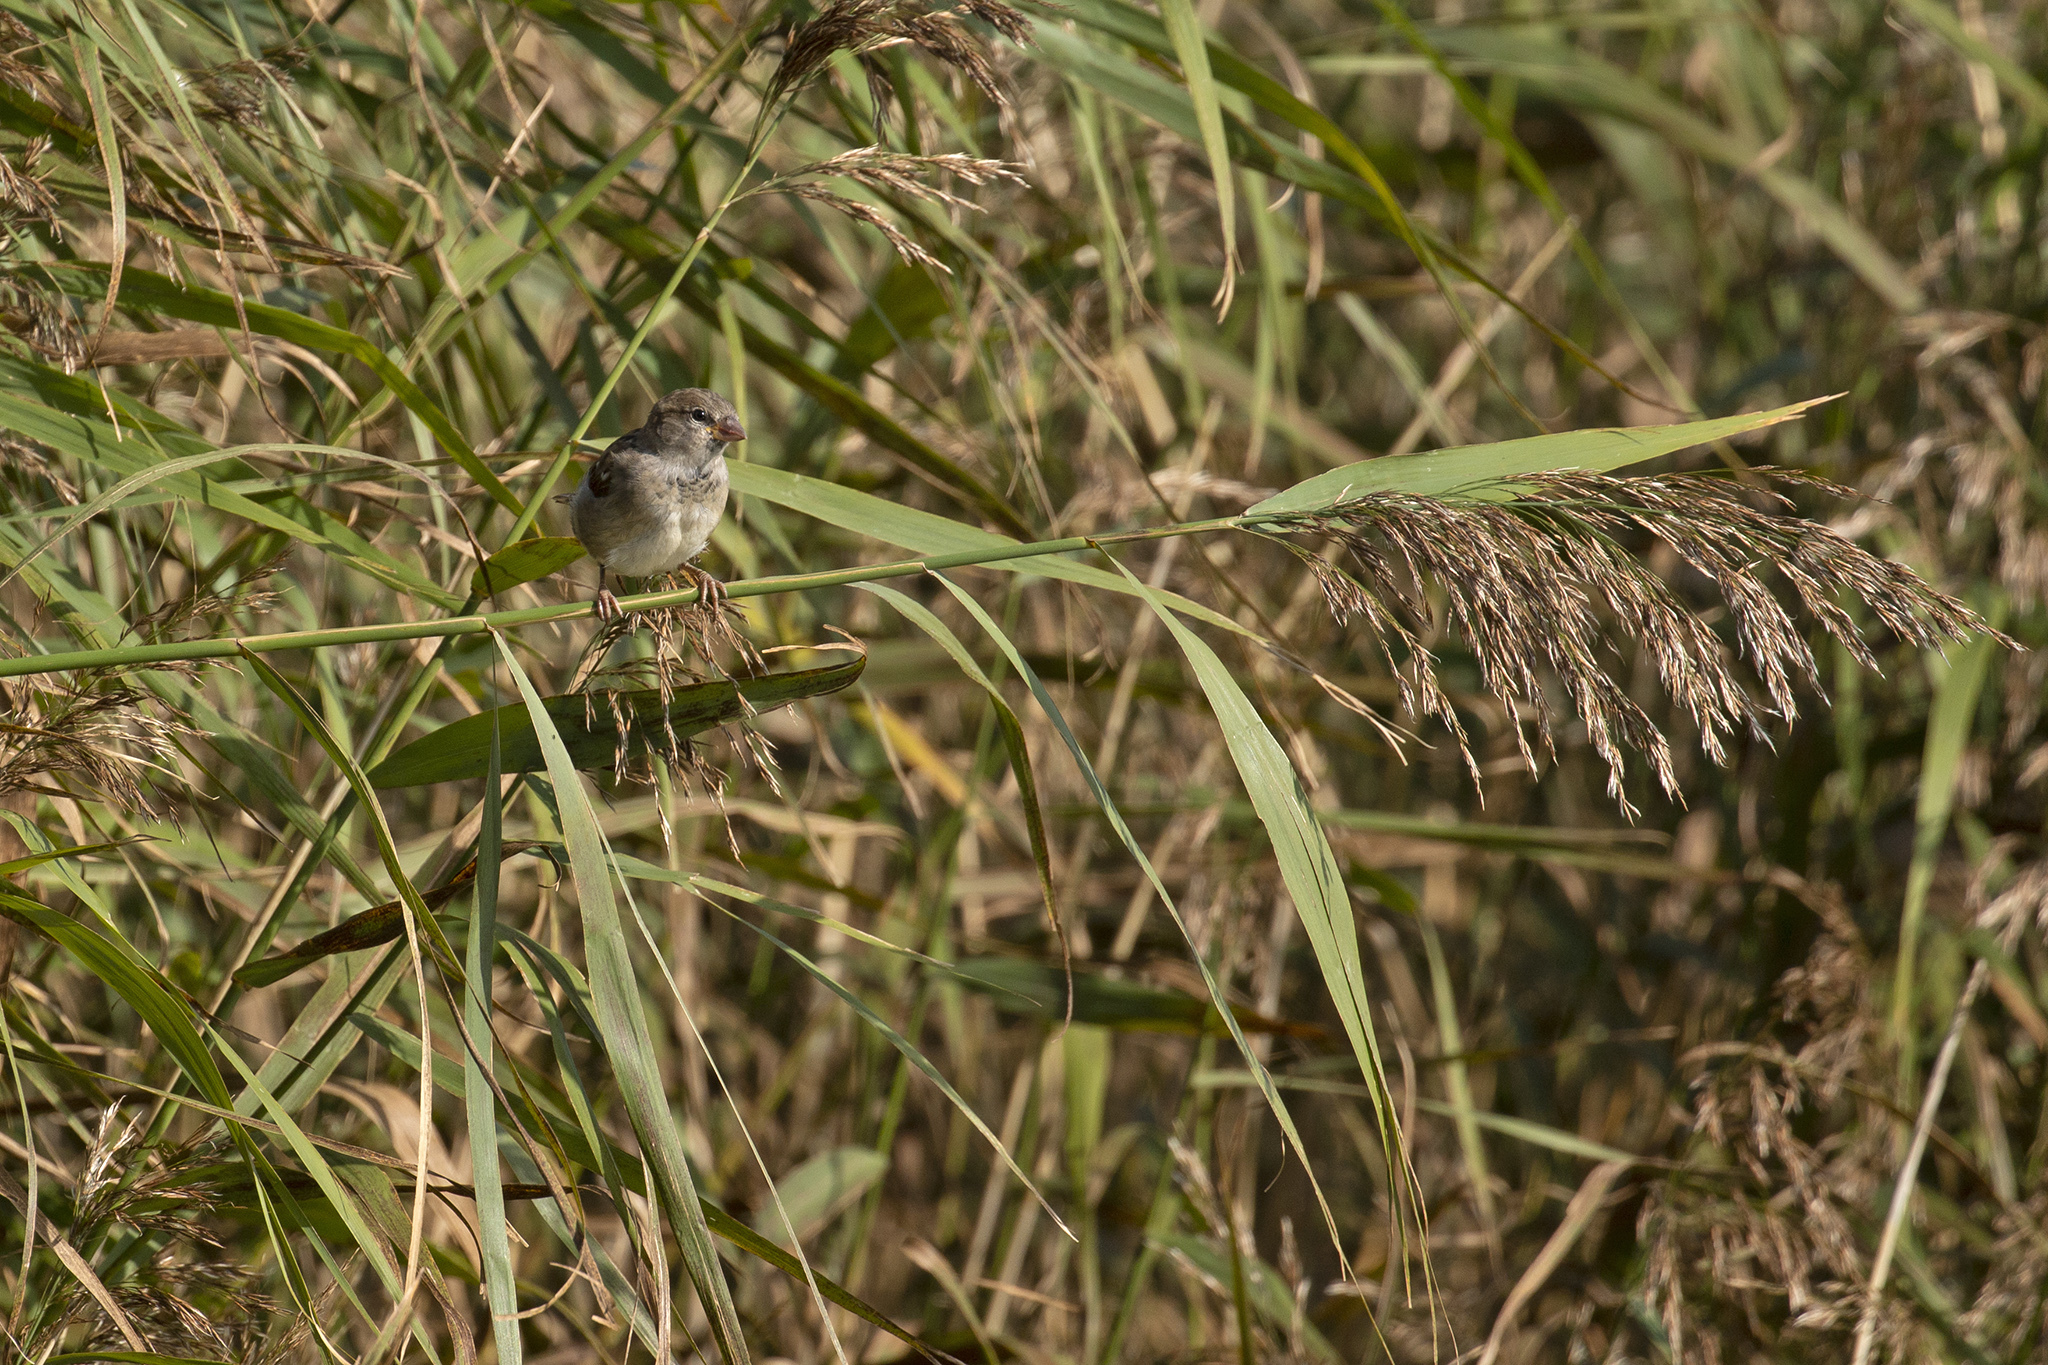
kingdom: Animalia
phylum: Chordata
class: Aves
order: Passeriformes
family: Passeridae
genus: Passer
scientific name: Passer domesticus
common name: House sparrow
